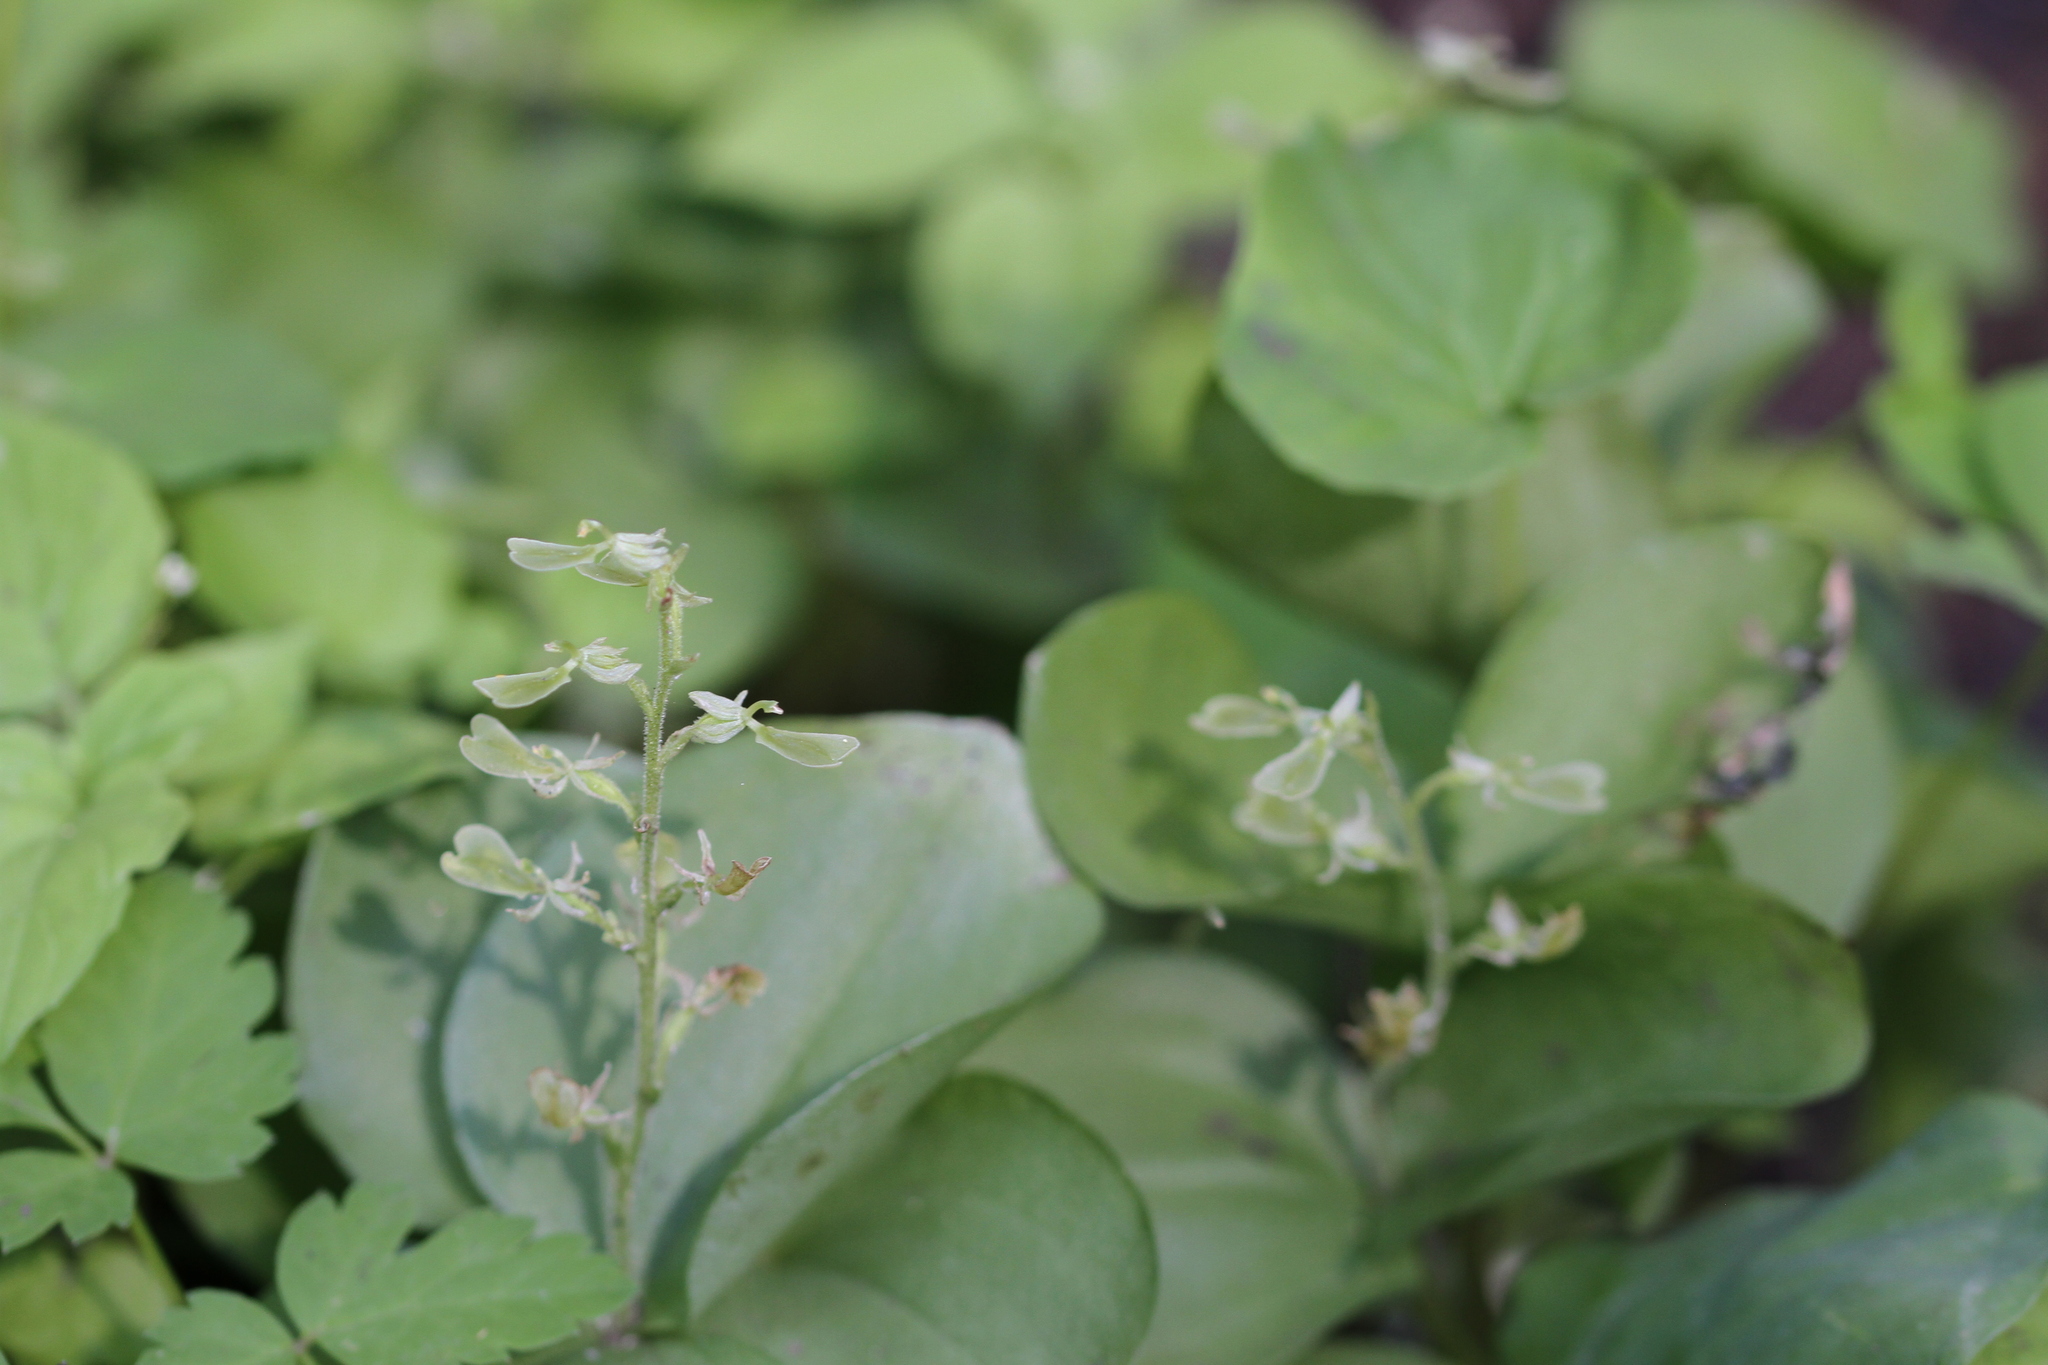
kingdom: Plantae
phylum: Tracheophyta
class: Liliopsida
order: Asparagales
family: Orchidaceae
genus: Neottia
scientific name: Neottia convallarioides
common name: Broadleaf twayblade
